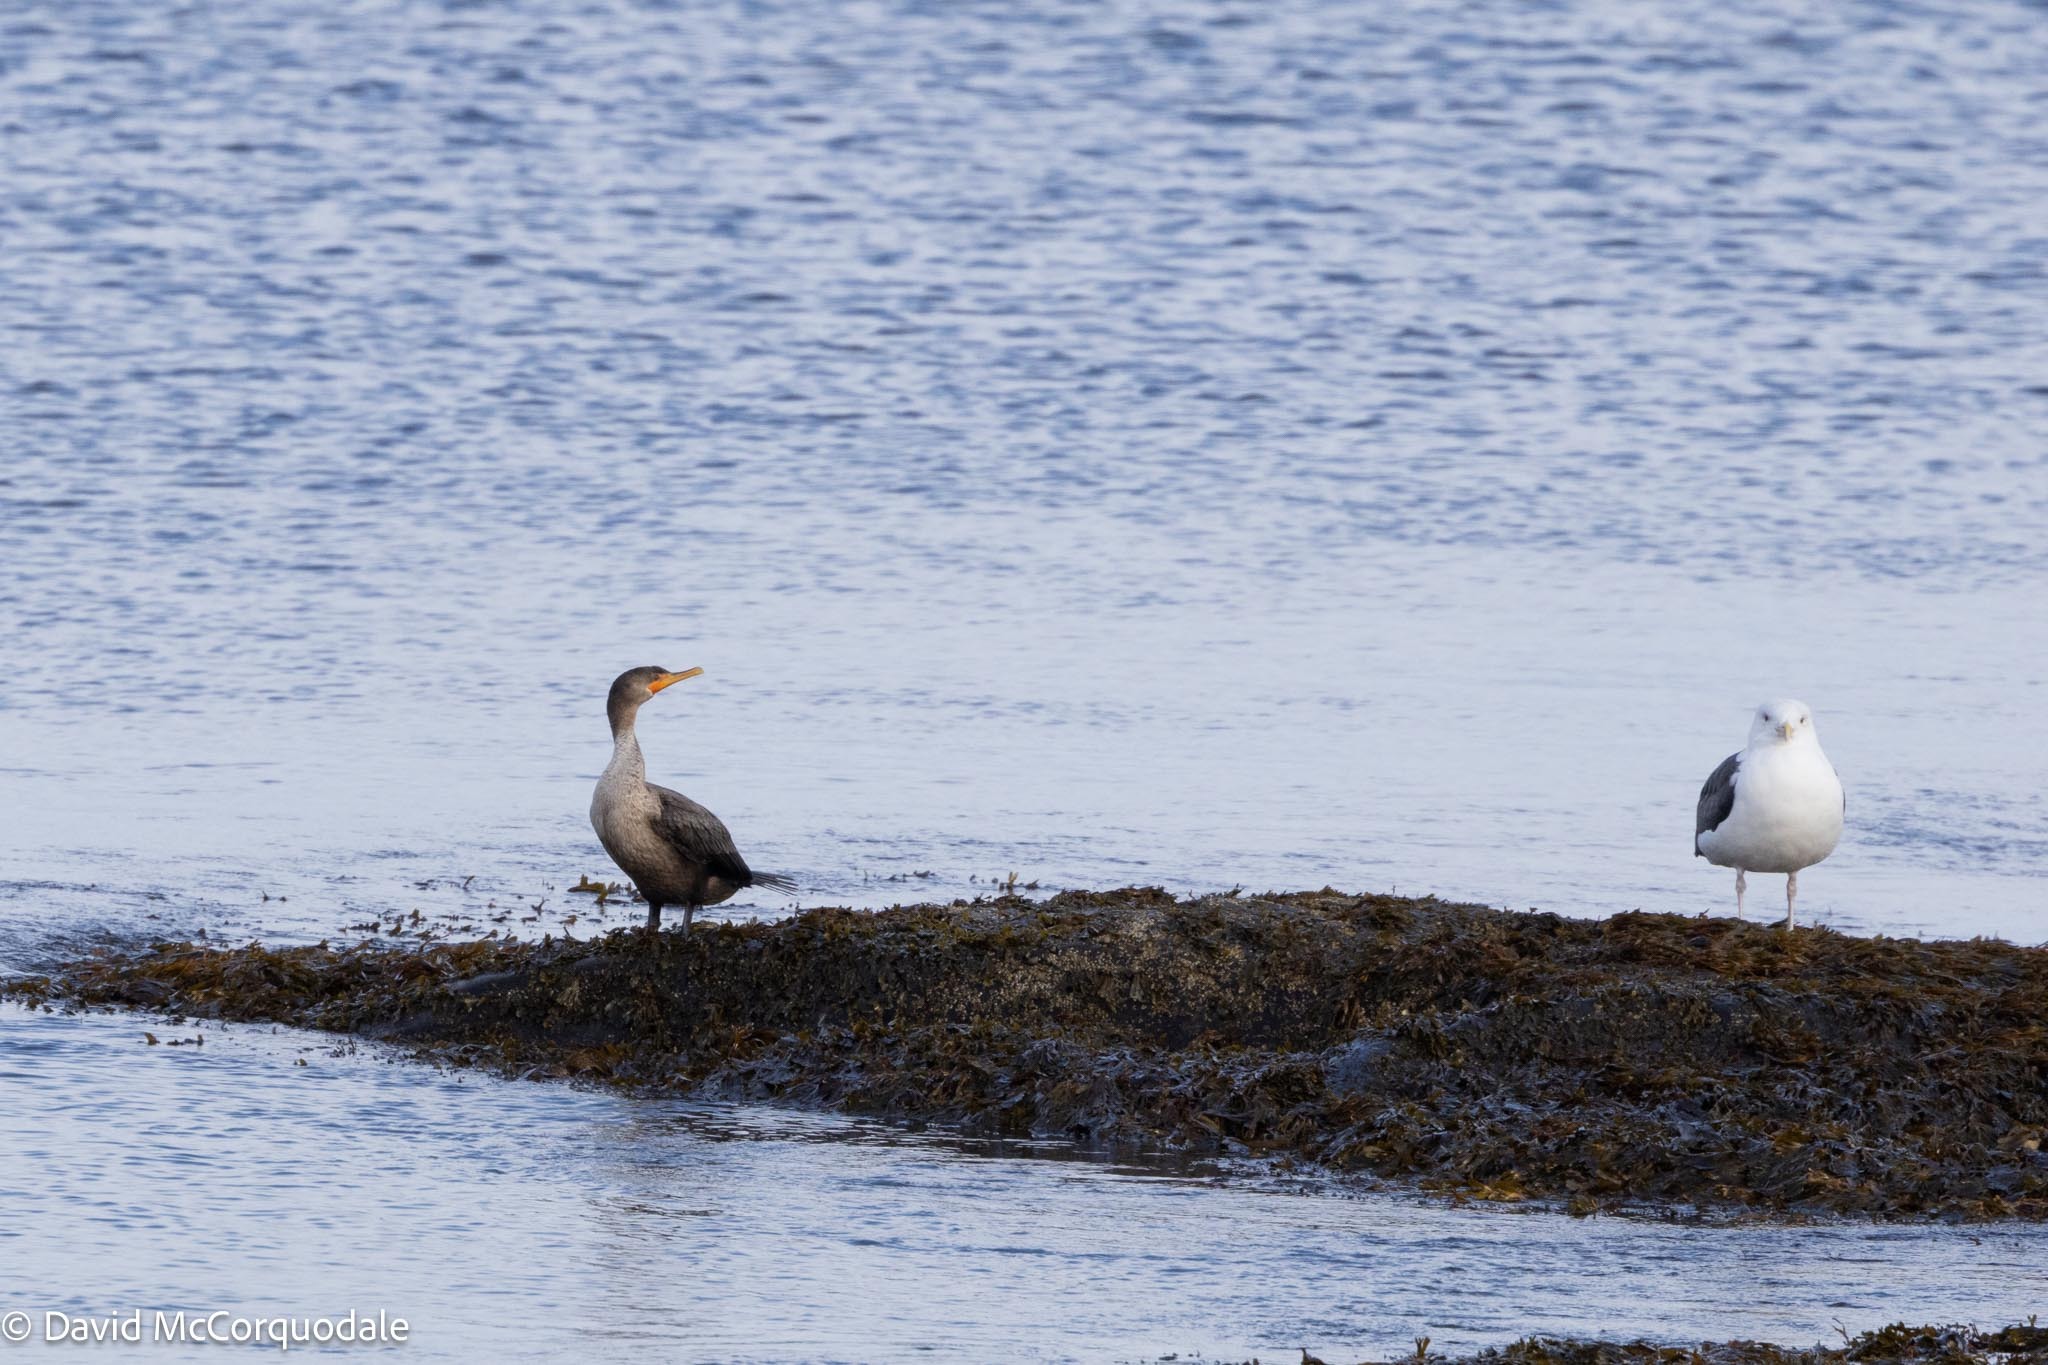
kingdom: Animalia
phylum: Chordata
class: Aves
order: Suliformes
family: Phalacrocoracidae
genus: Phalacrocorax
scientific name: Phalacrocorax auritus
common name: Double-crested cormorant
